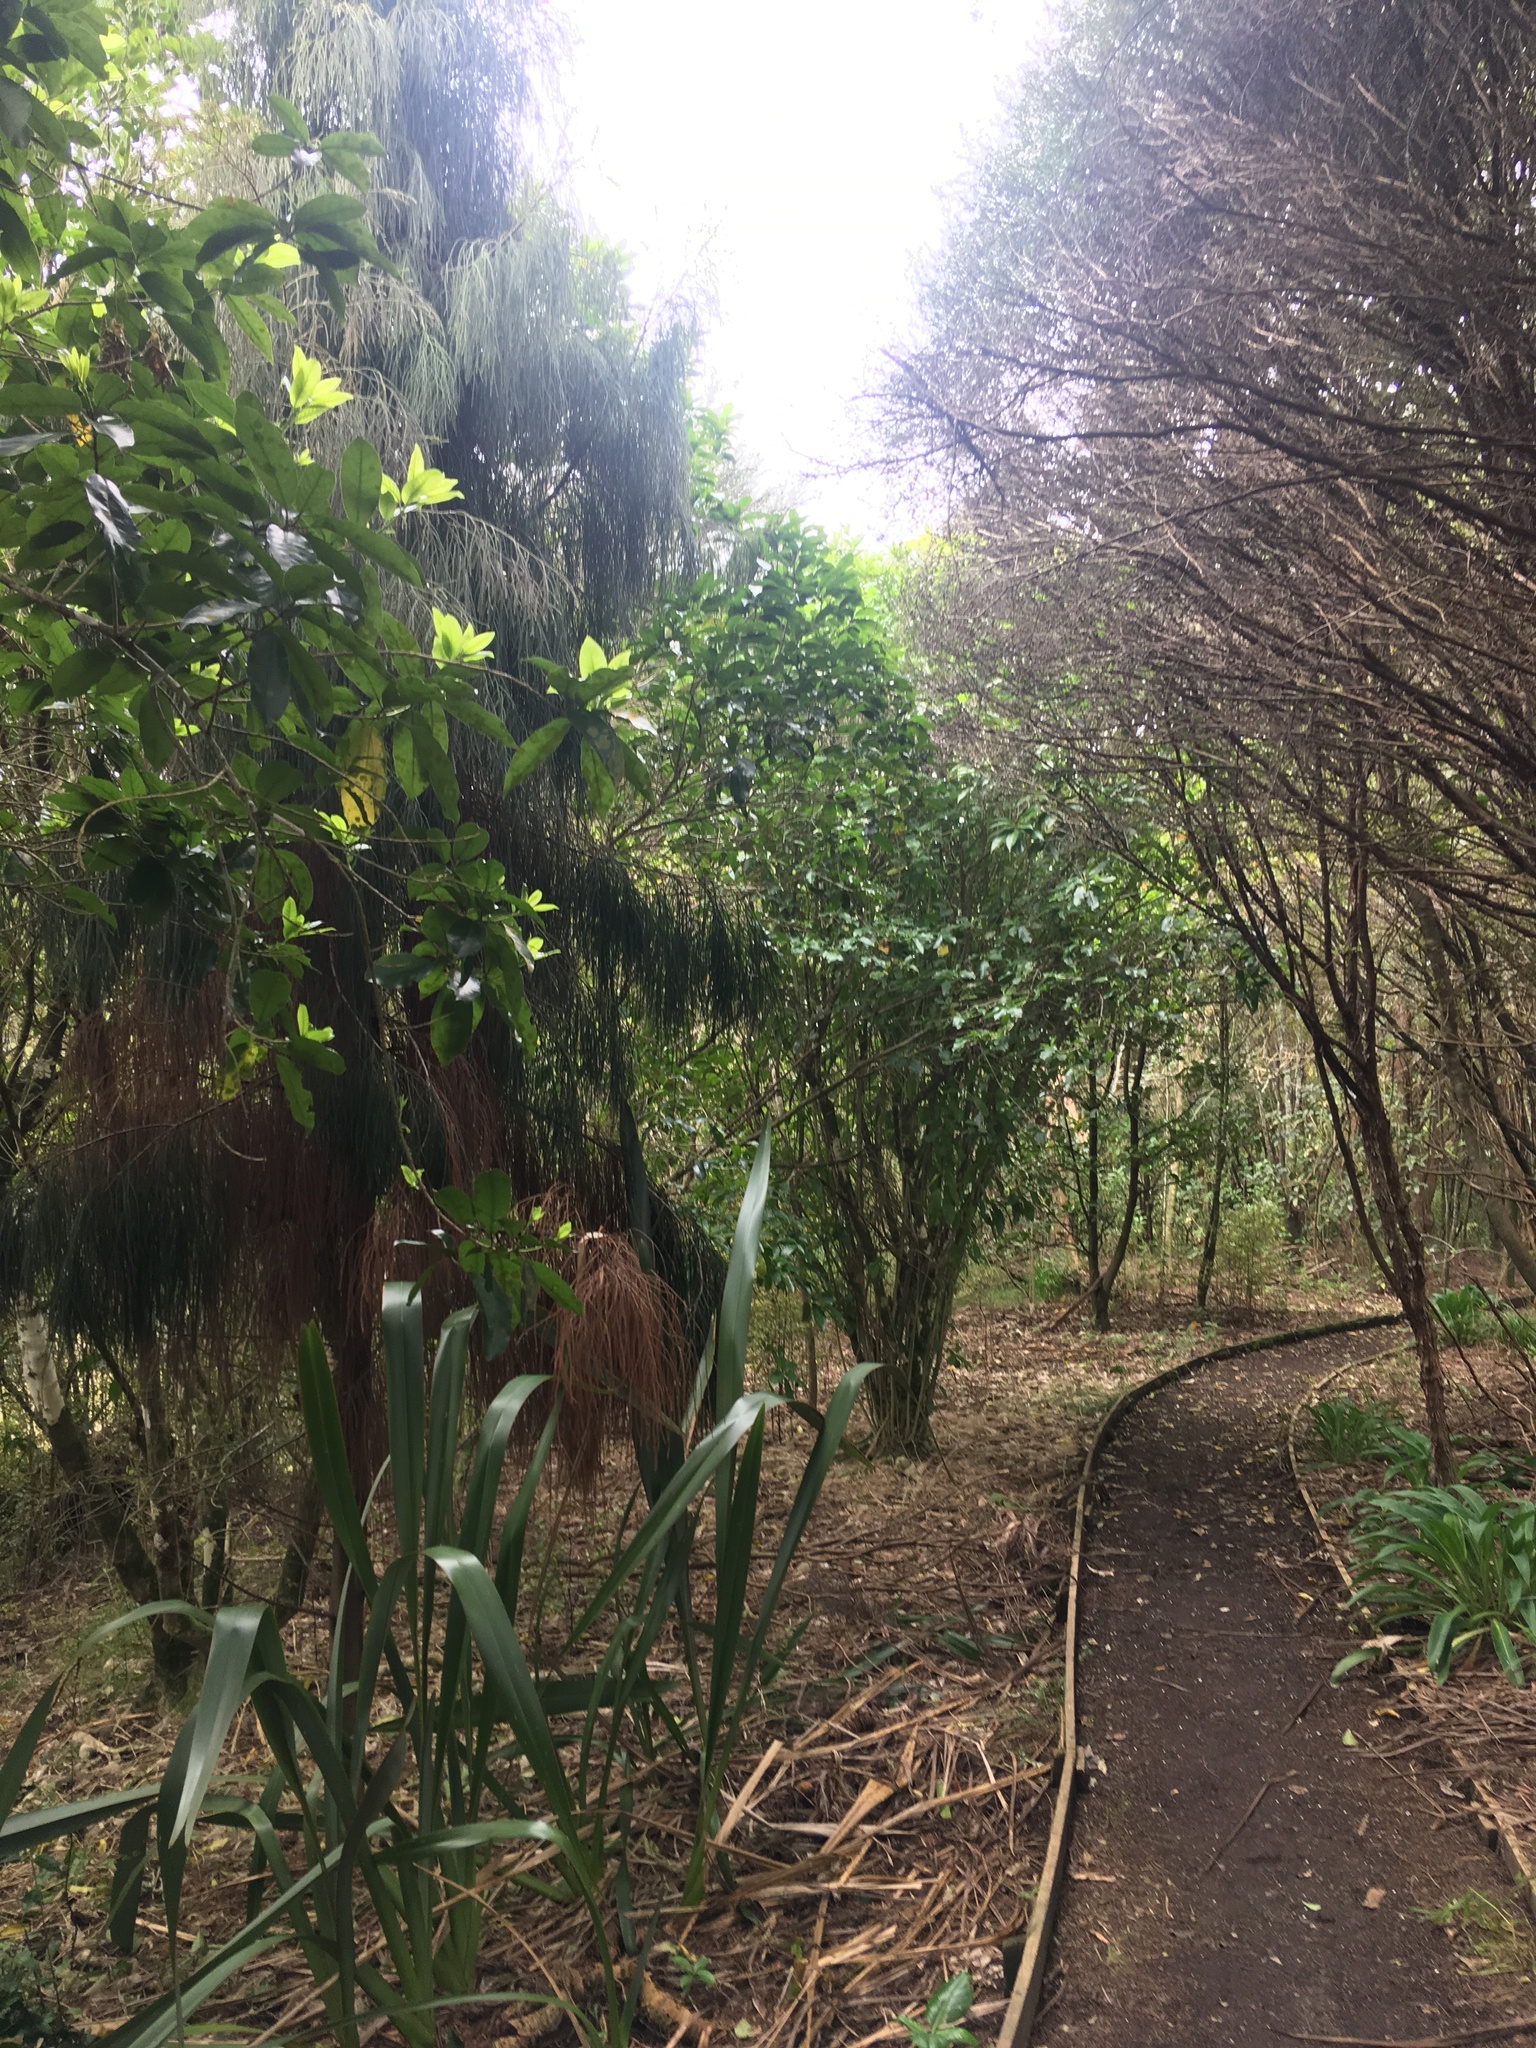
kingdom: Plantae
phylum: Tracheophyta
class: Pinopsida
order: Pinales
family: Podocarpaceae
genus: Dacrydium
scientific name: Dacrydium cupressinum
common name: Red pine
